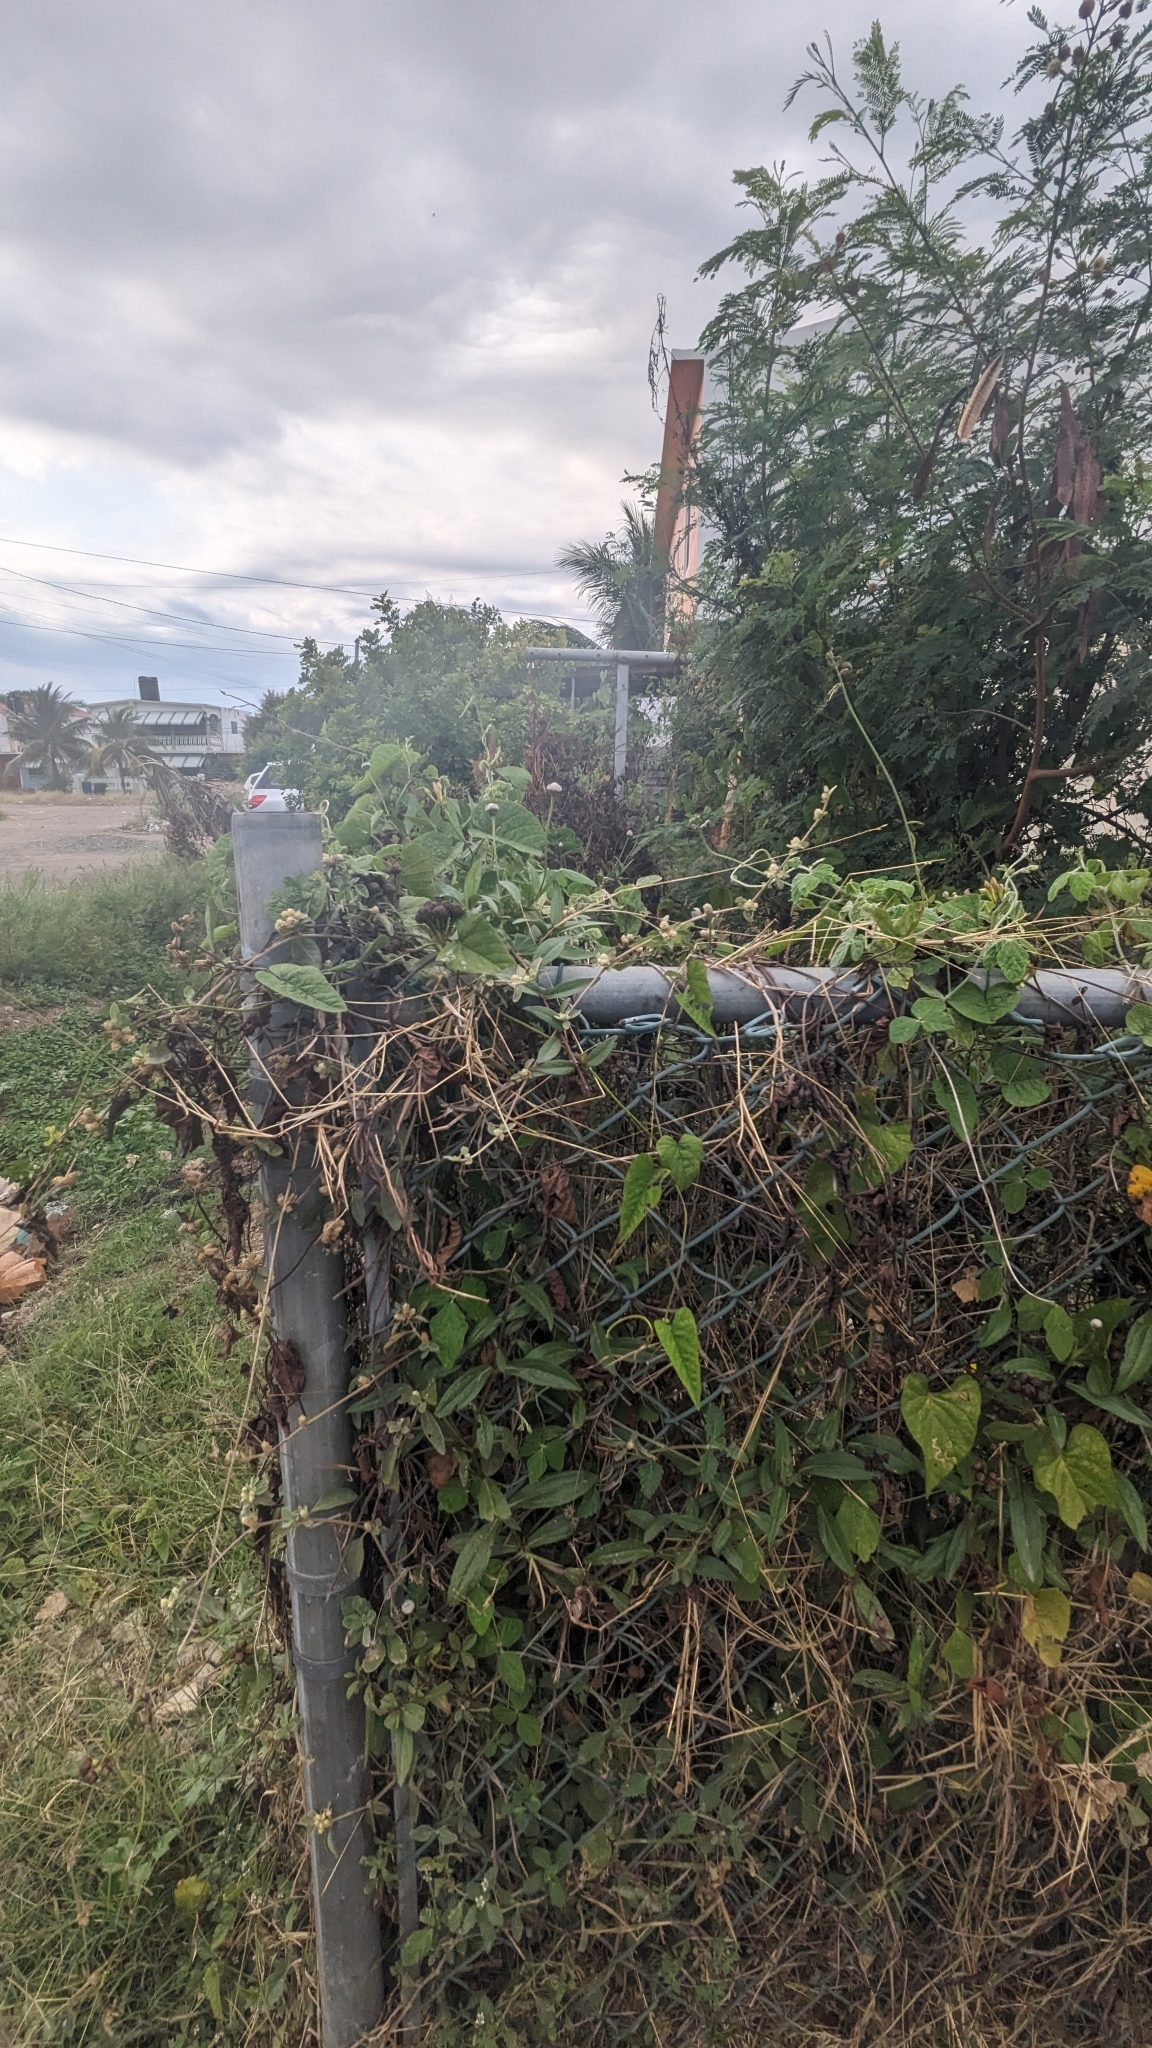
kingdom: Plantae
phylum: Tracheophyta
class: Magnoliopsida
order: Asterales
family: Asteraceae
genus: Spilanthes
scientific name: Spilanthes urens
